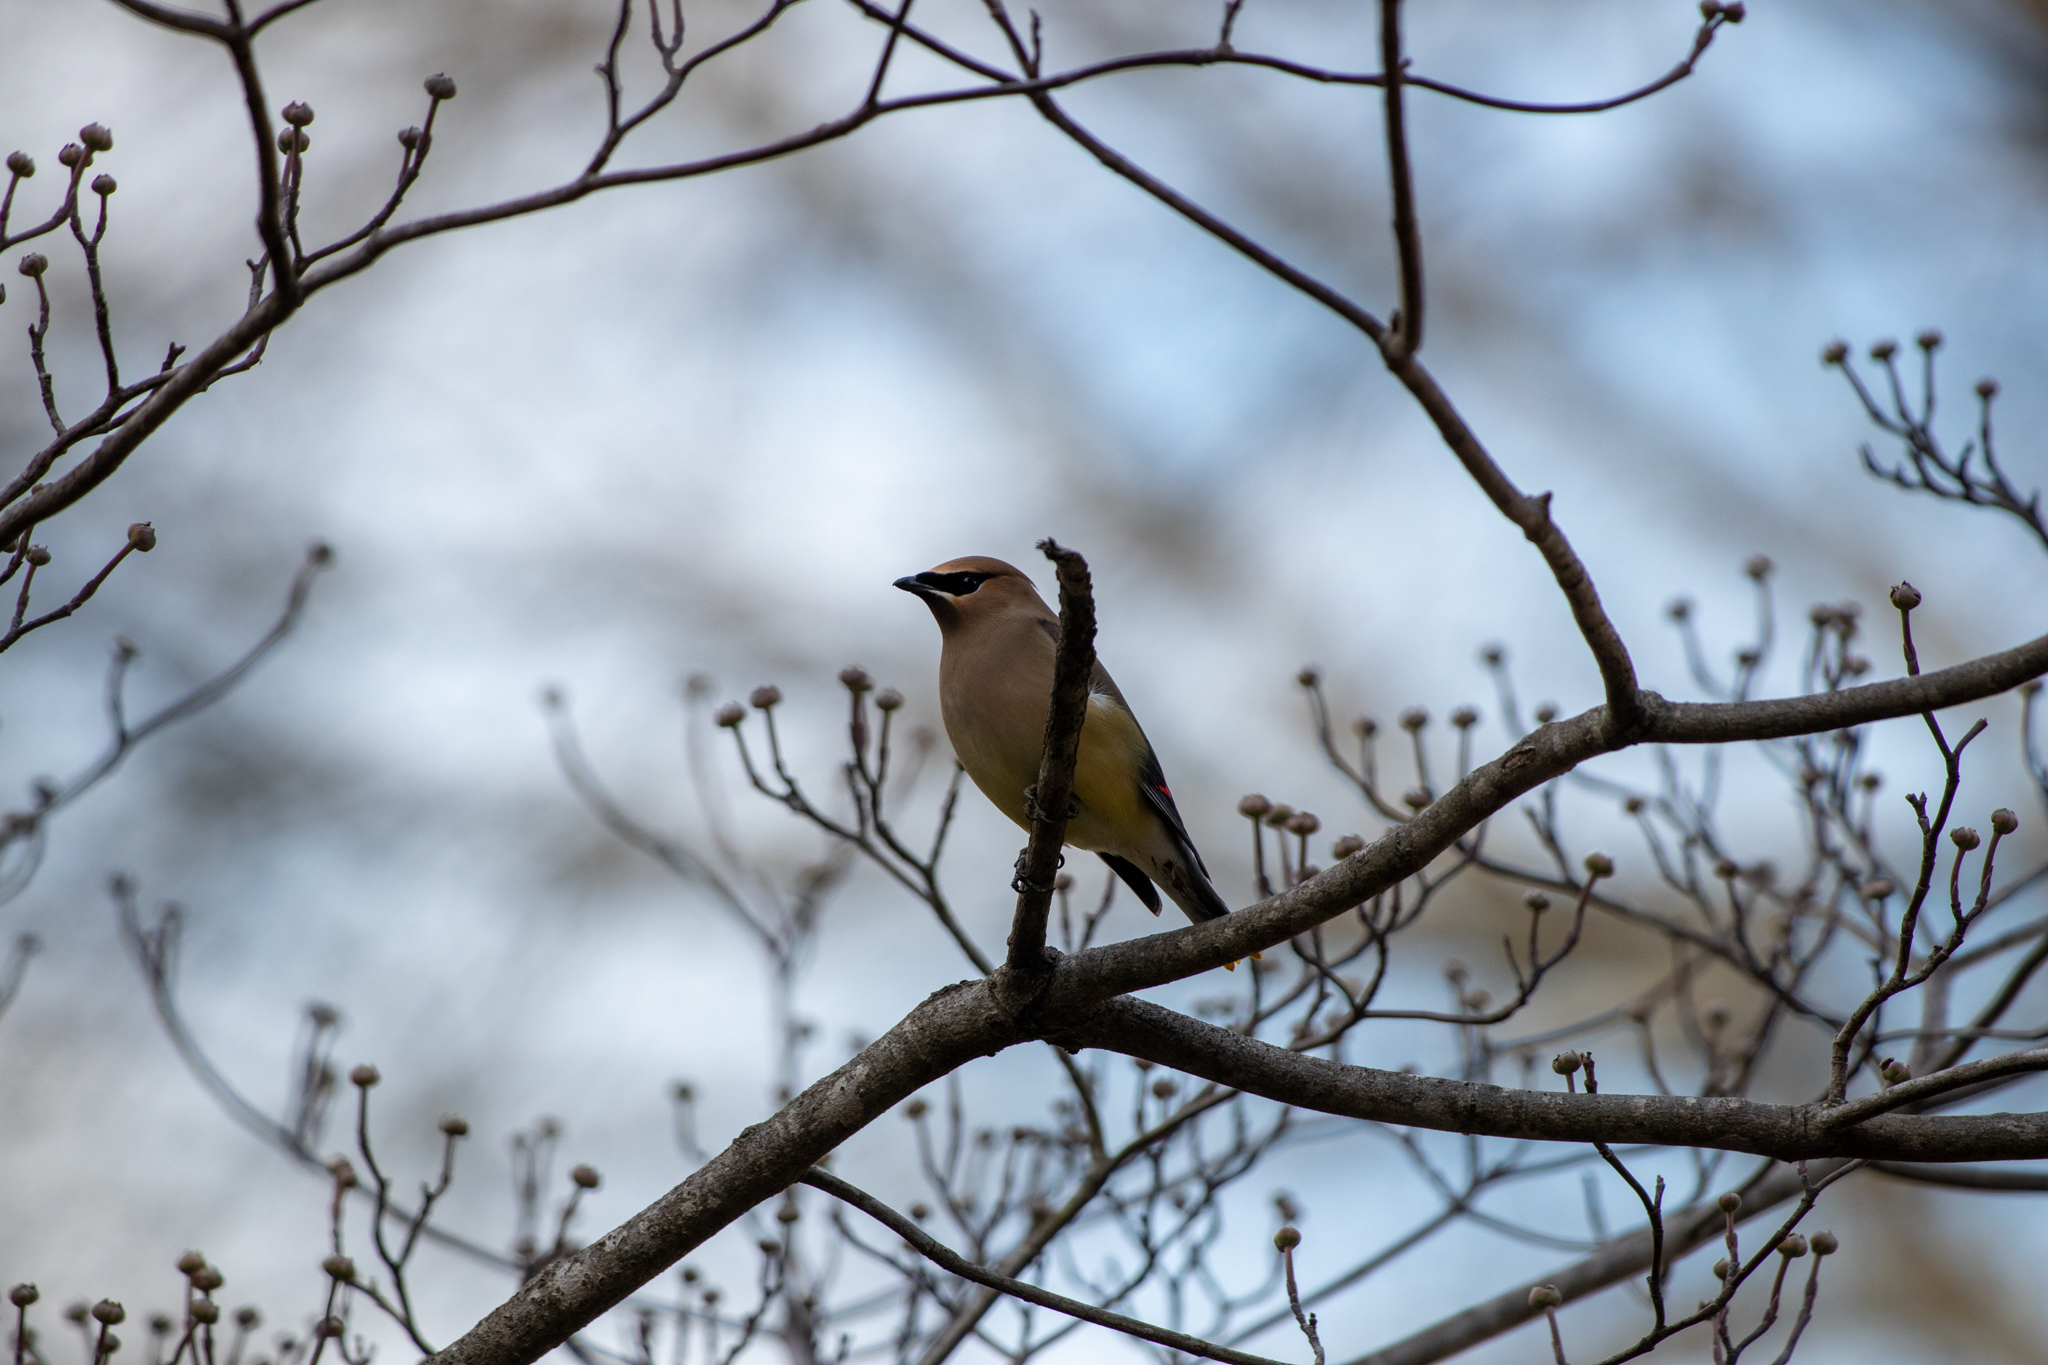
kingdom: Animalia
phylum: Chordata
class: Aves
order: Passeriformes
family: Bombycillidae
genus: Bombycilla
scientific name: Bombycilla cedrorum
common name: Cedar waxwing
